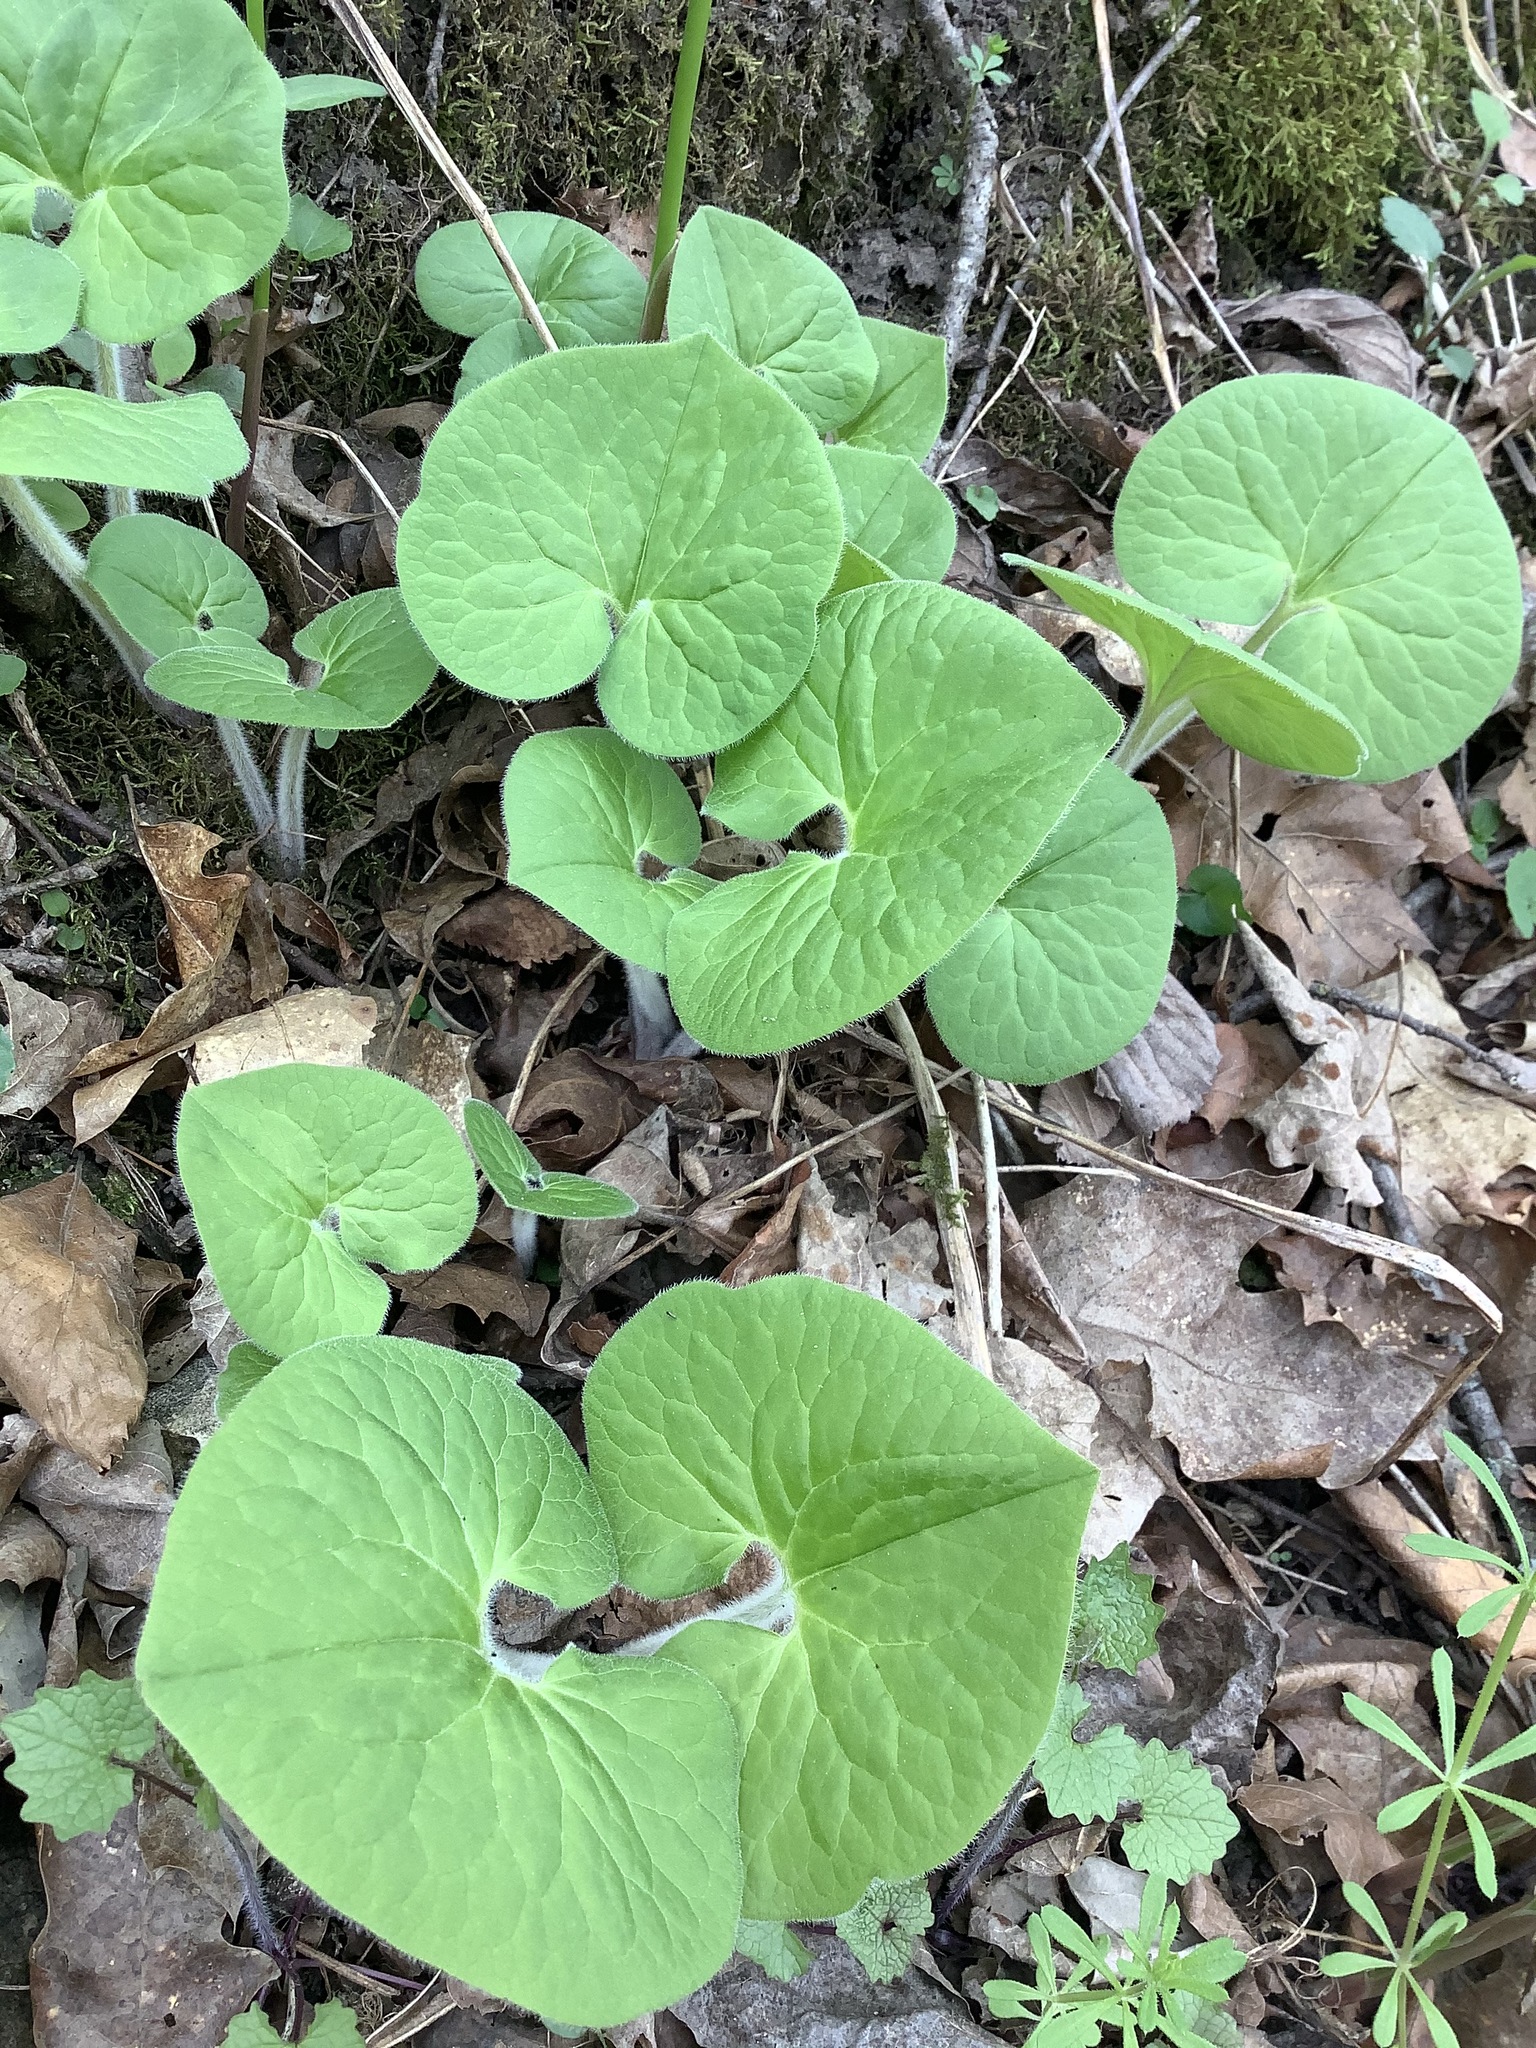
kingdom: Plantae
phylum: Tracheophyta
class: Magnoliopsida
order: Piperales
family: Aristolochiaceae
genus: Asarum
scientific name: Asarum canadense
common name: Wild ginger
